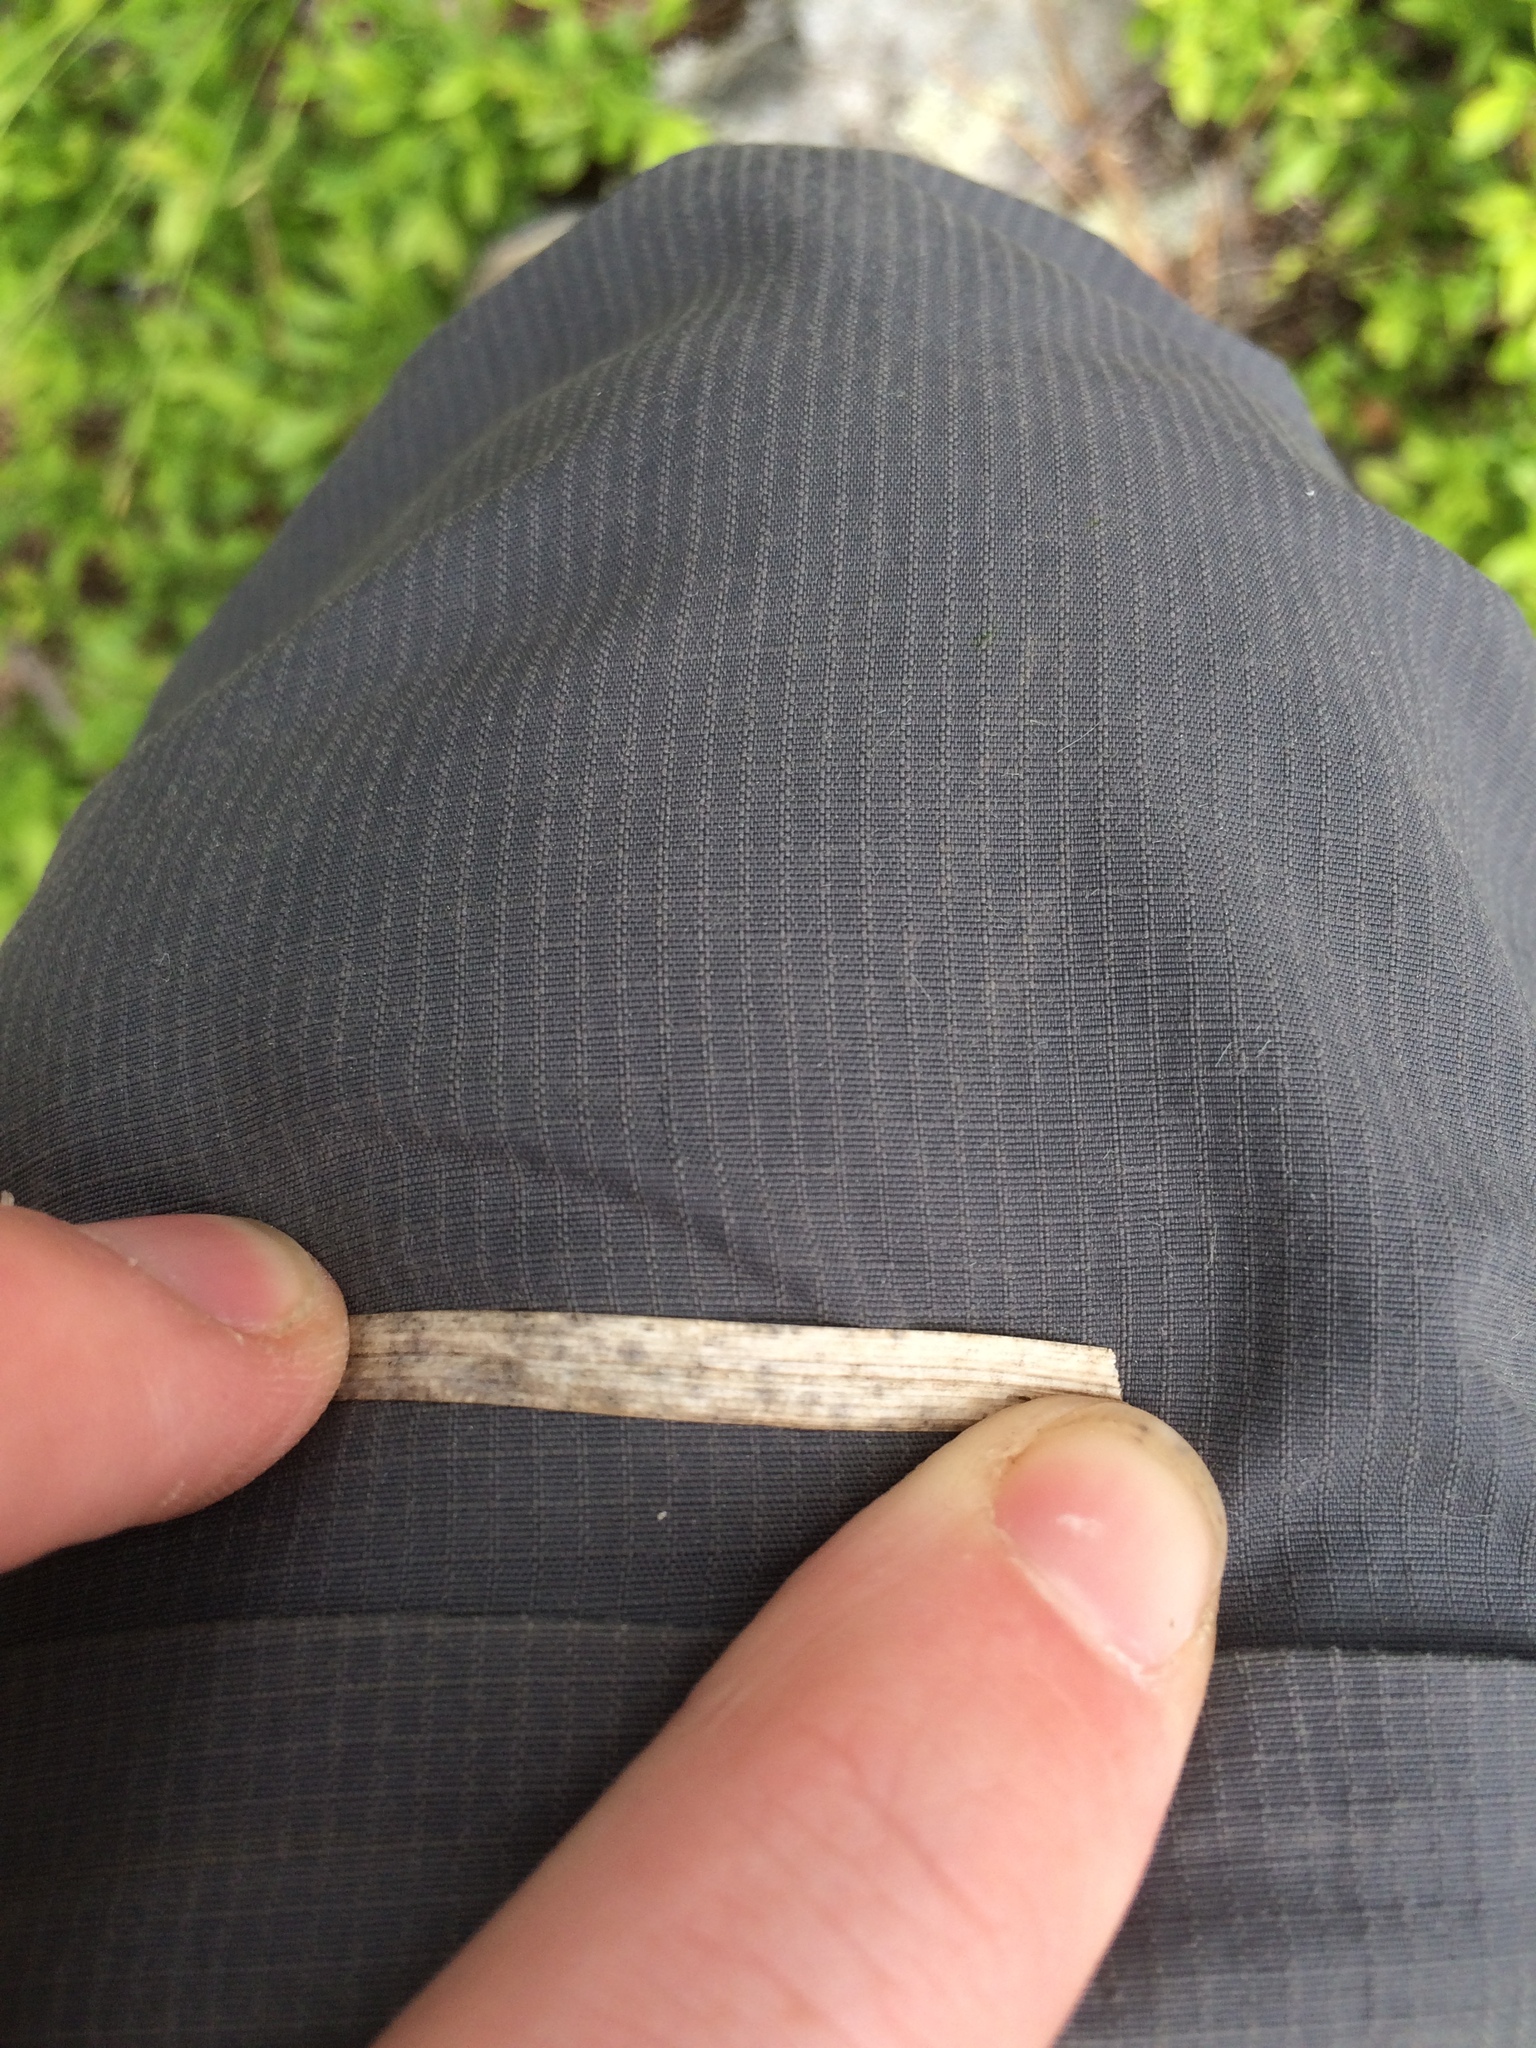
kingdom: Plantae
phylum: Tracheophyta
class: Liliopsida
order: Poales
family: Cyperaceae
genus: Carex
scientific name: Carex communis
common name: Colonial oak sedge
